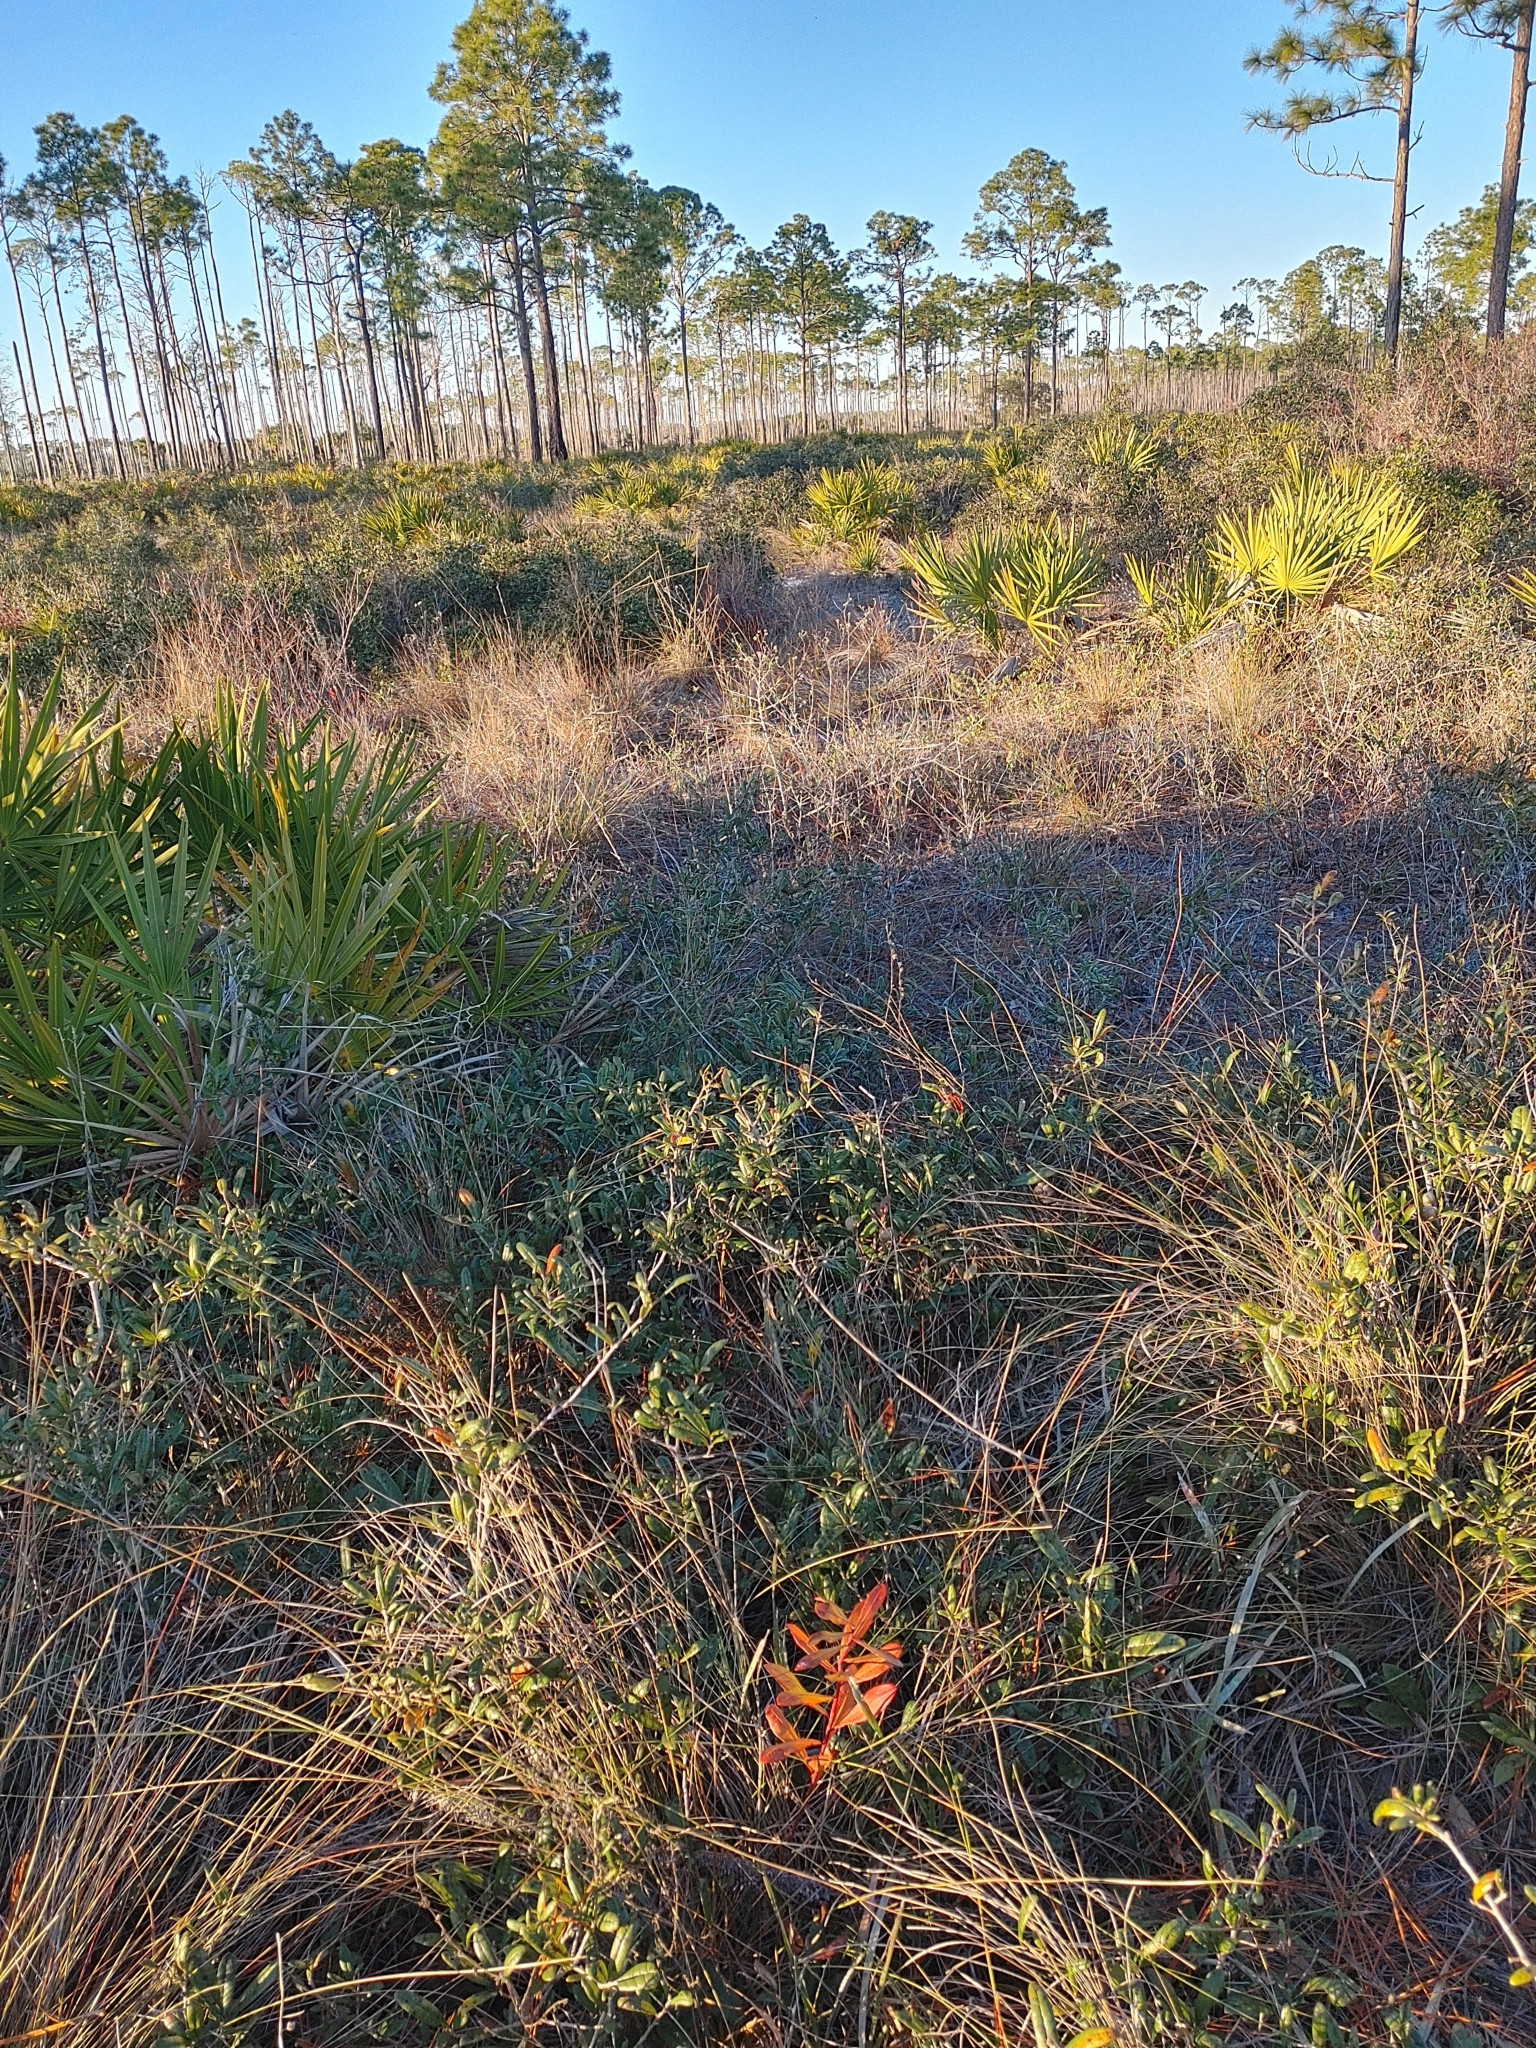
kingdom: Plantae
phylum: Tracheophyta
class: Magnoliopsida
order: Malpighiales
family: Euphorbiaceae
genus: Stillingia
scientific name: Stillingia sylvatica
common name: Queen's-delight
